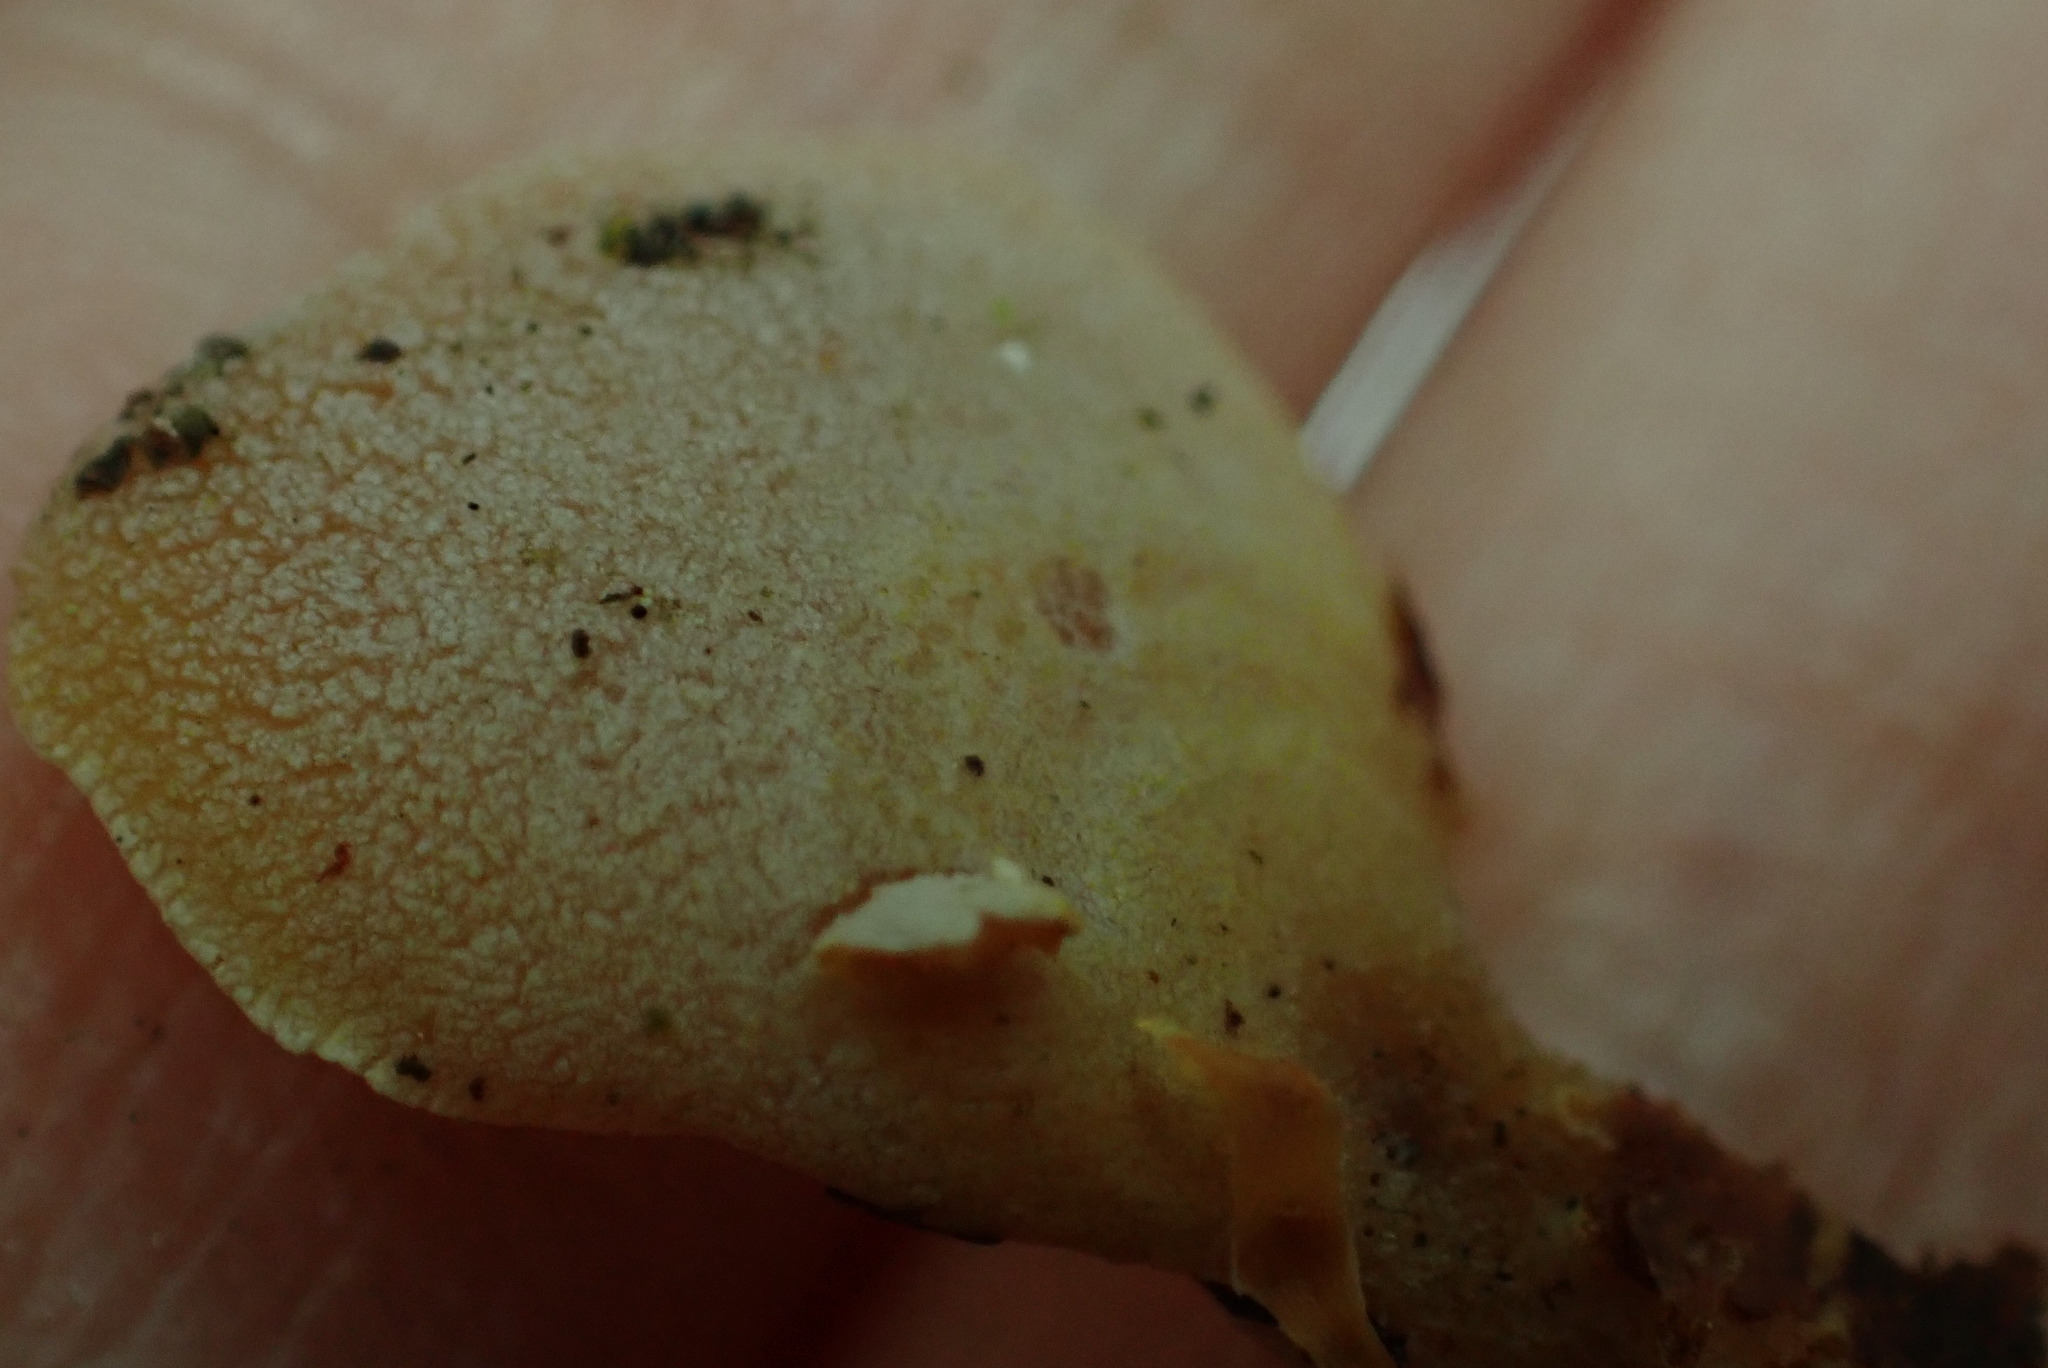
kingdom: Fungi
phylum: Basidiomycota
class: Agaricomycetes
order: Agaricales
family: Mycenaceae
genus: Panellus
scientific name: Panellus stipticus
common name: Bitter oysterling
